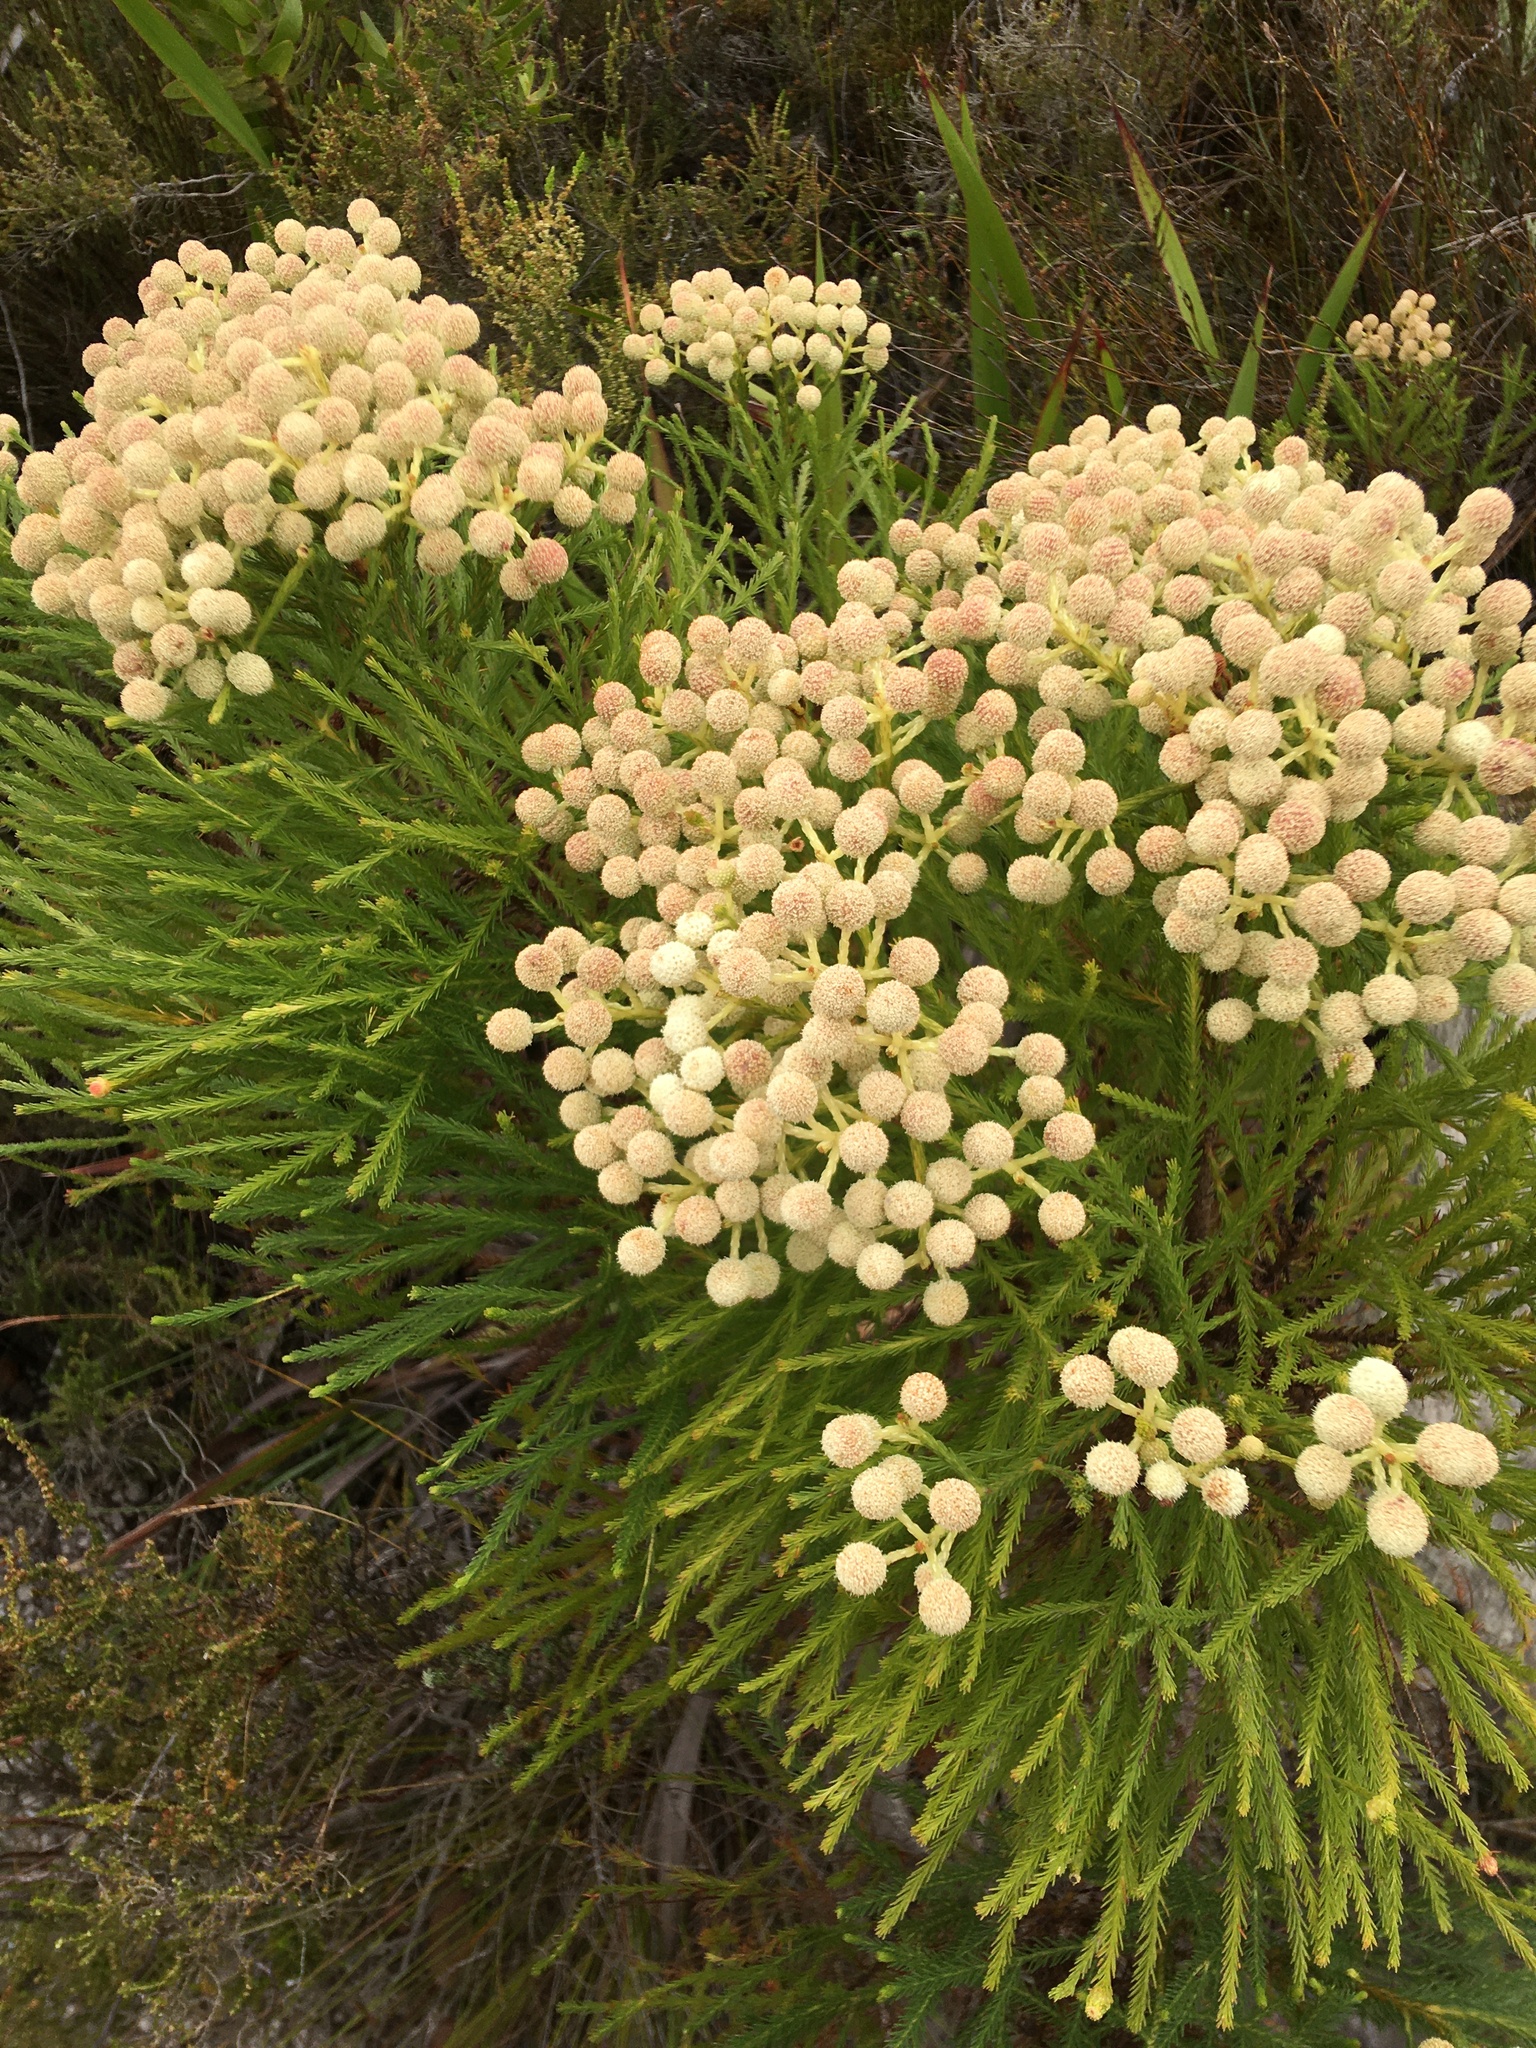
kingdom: Plantae
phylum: Tracheophyta
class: Magnoliopsida
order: Bruniales
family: Bruniaceae
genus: Berzelia
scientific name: Berzelia lanuginosa
